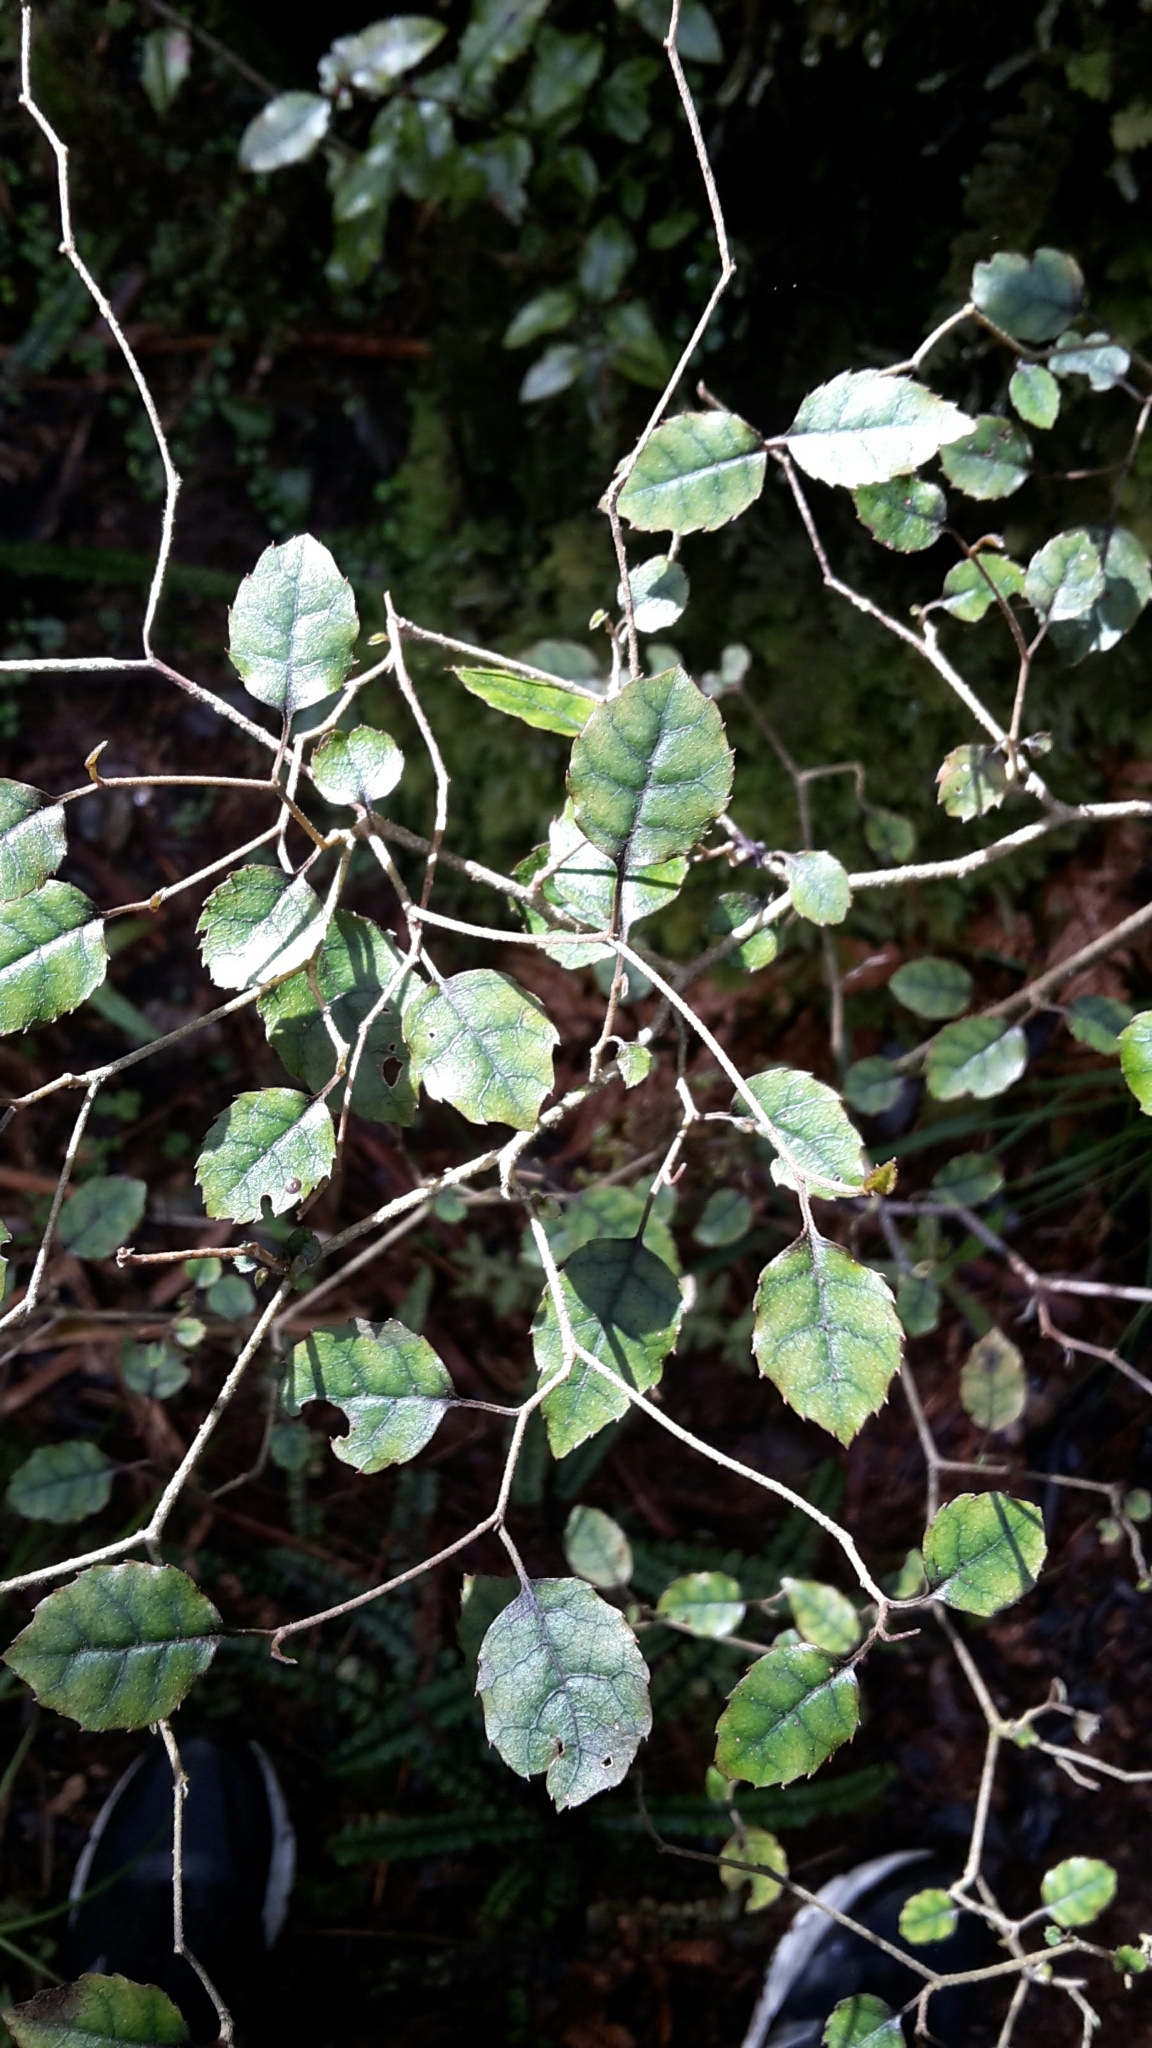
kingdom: Plantae
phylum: Tracheophyta
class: Magnoliopsida
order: Asterales
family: Rousseaceae
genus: Carpodetus
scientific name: Carpodetus serratus
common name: White mapau
